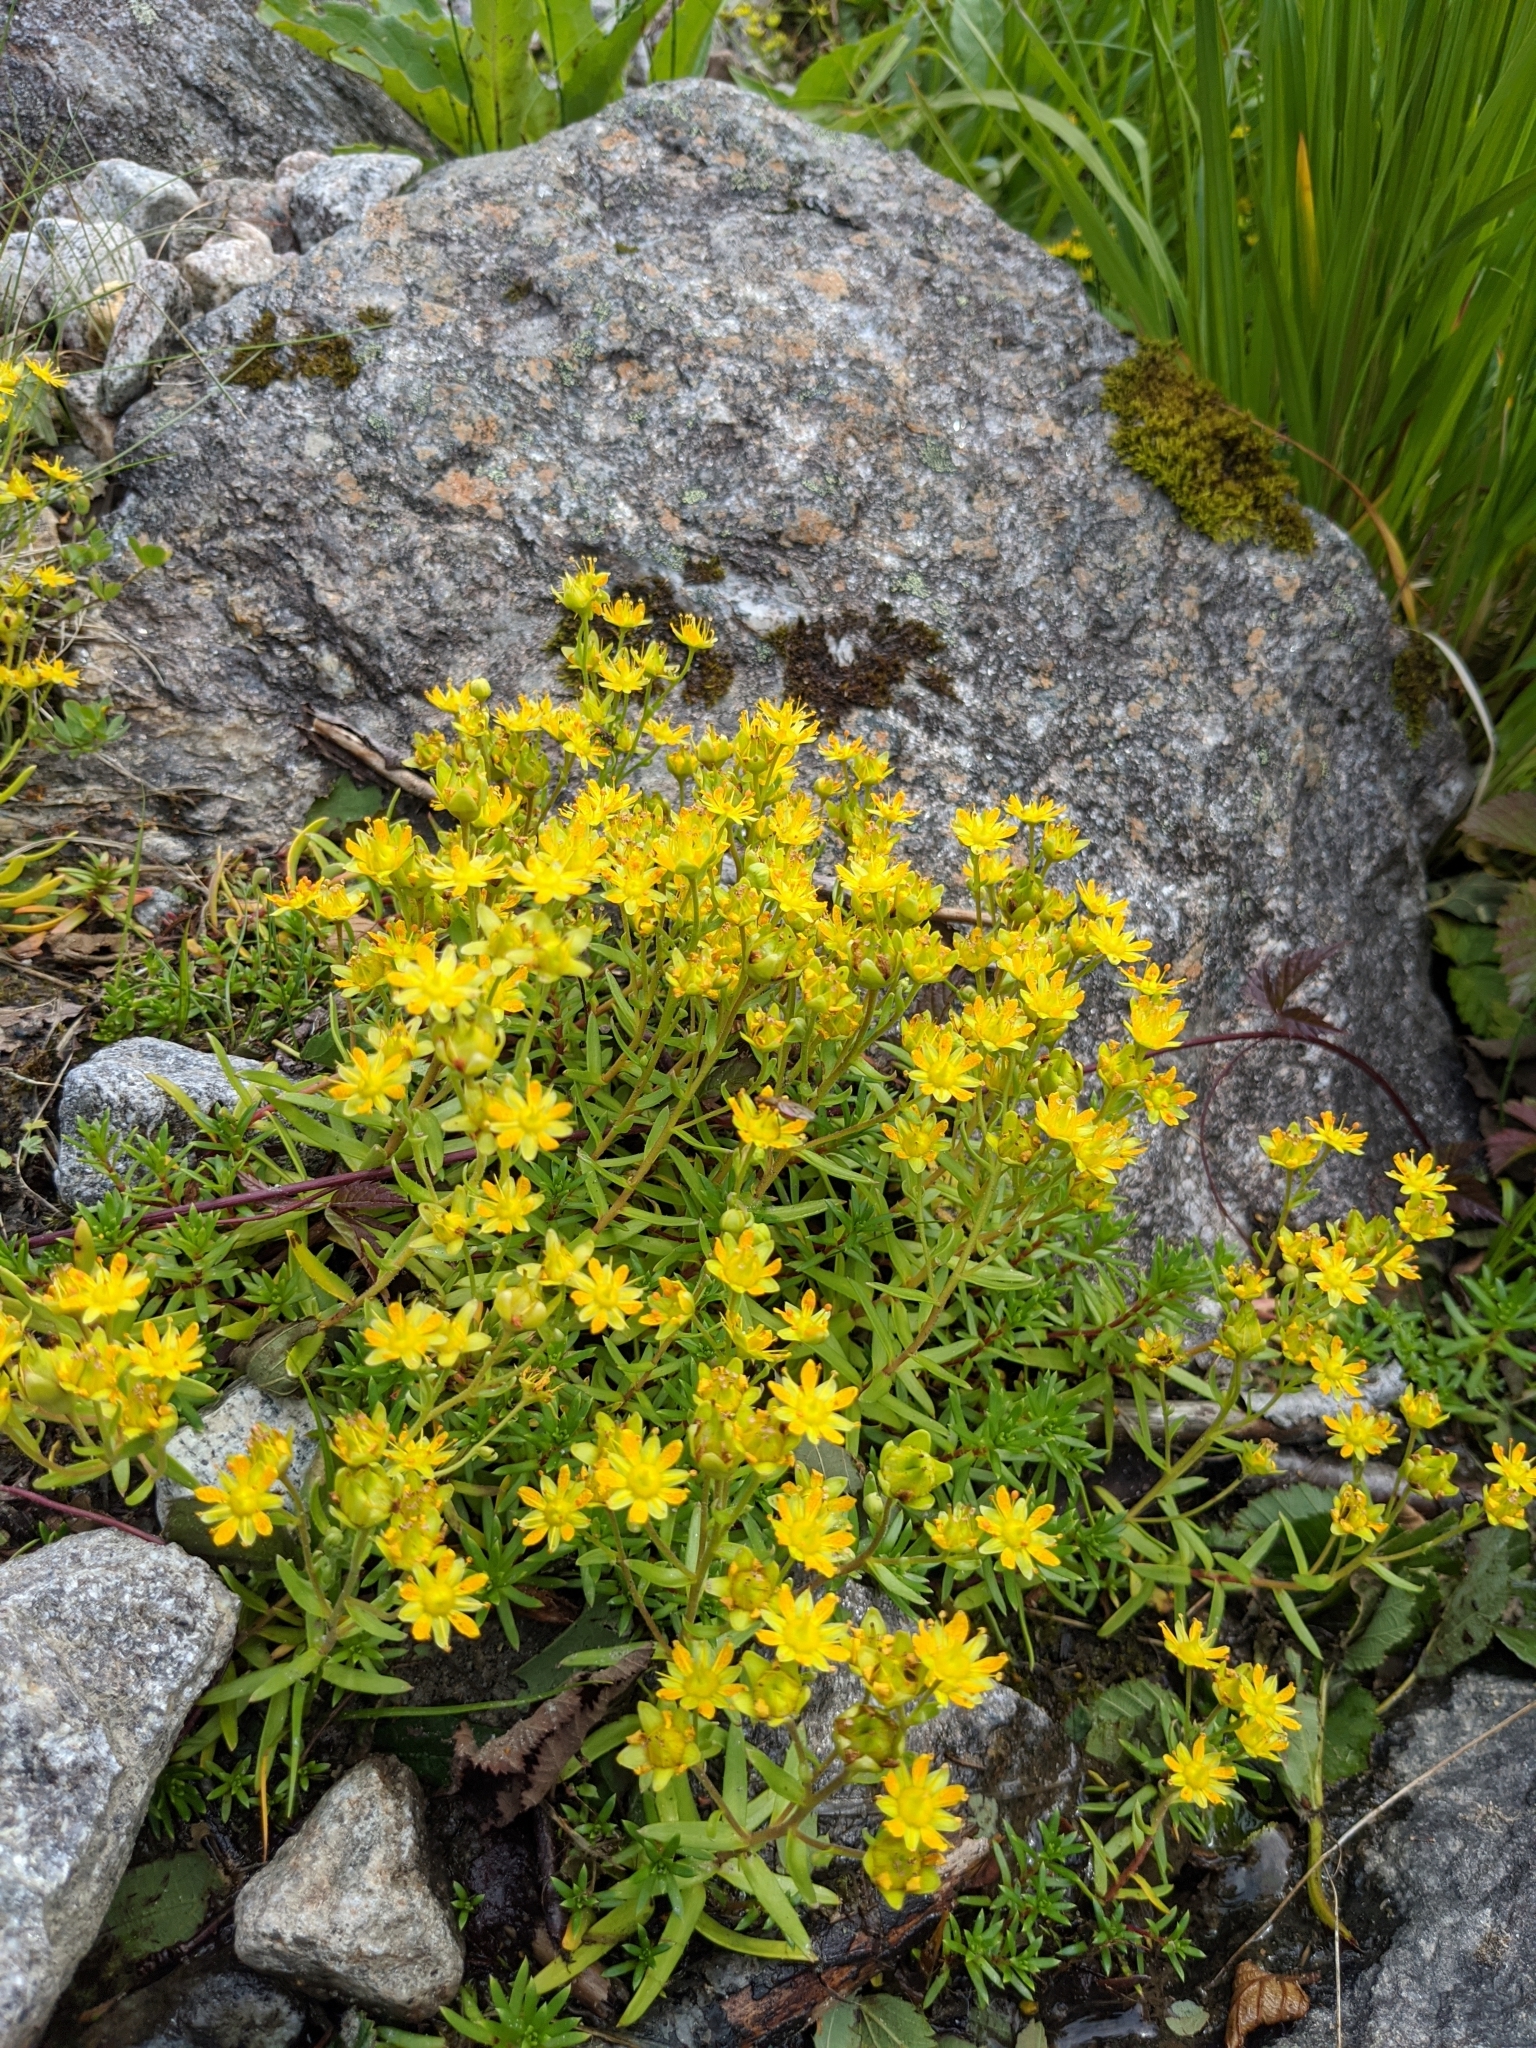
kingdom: Plantae
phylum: Tracheophyta
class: Magnoliopsida
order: Saxifragales
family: Saxifragaceae
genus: Saxifraga
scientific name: Saxifraga aizoides
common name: Yellow mountain saxifrage
